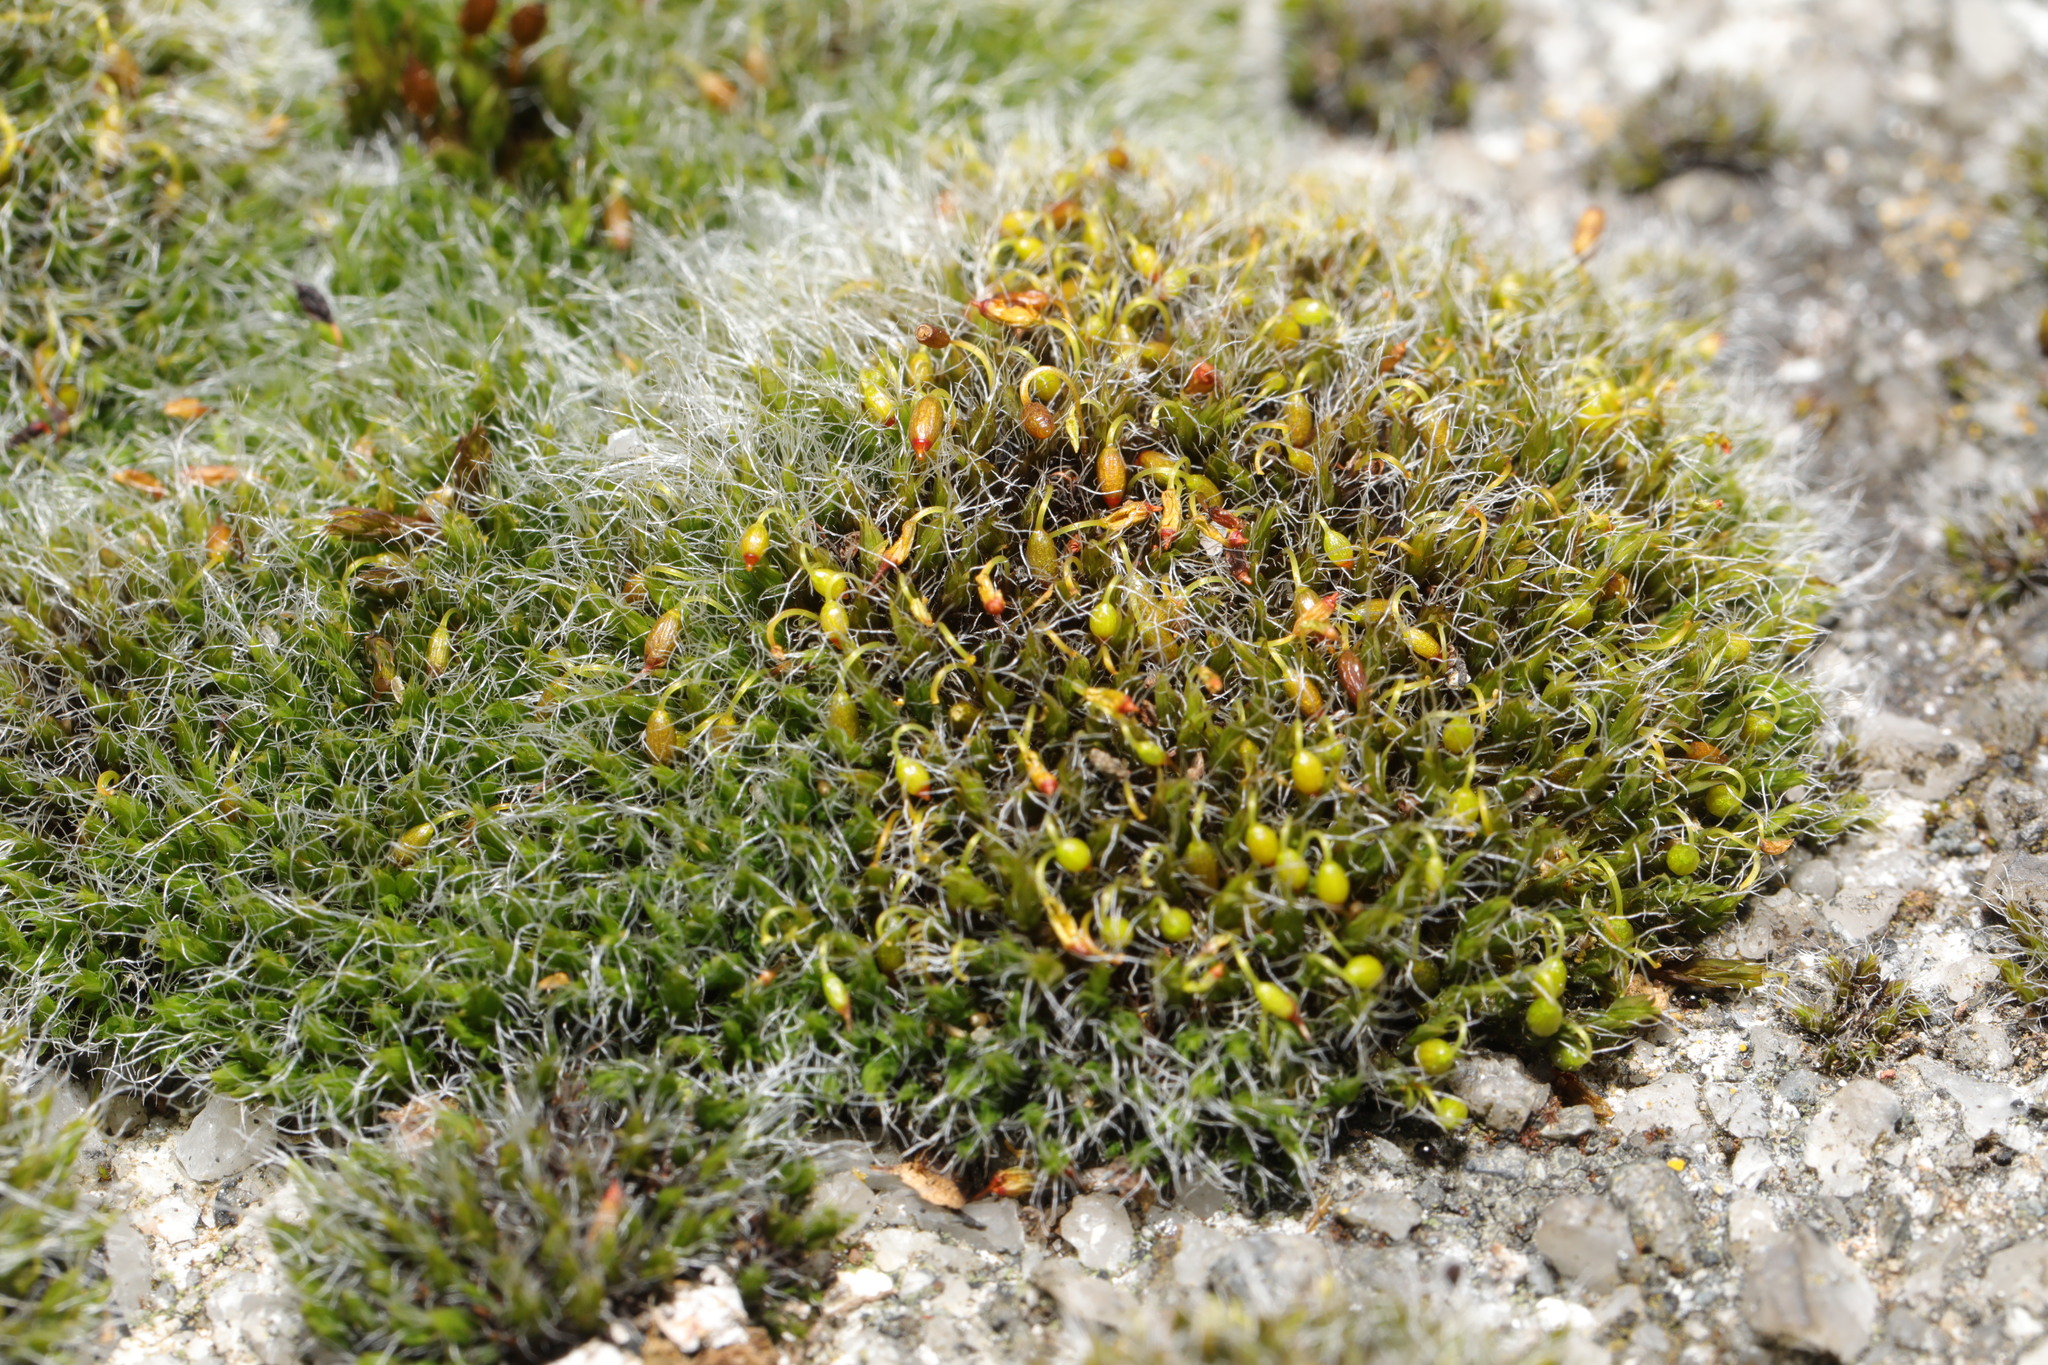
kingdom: Plantae
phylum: Bryophyta
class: Bryopsida
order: Grimmiales
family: Grimmiaceae
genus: Grimmia
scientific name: Grimmia pulvinata
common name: Grey-cushioned grimmia
